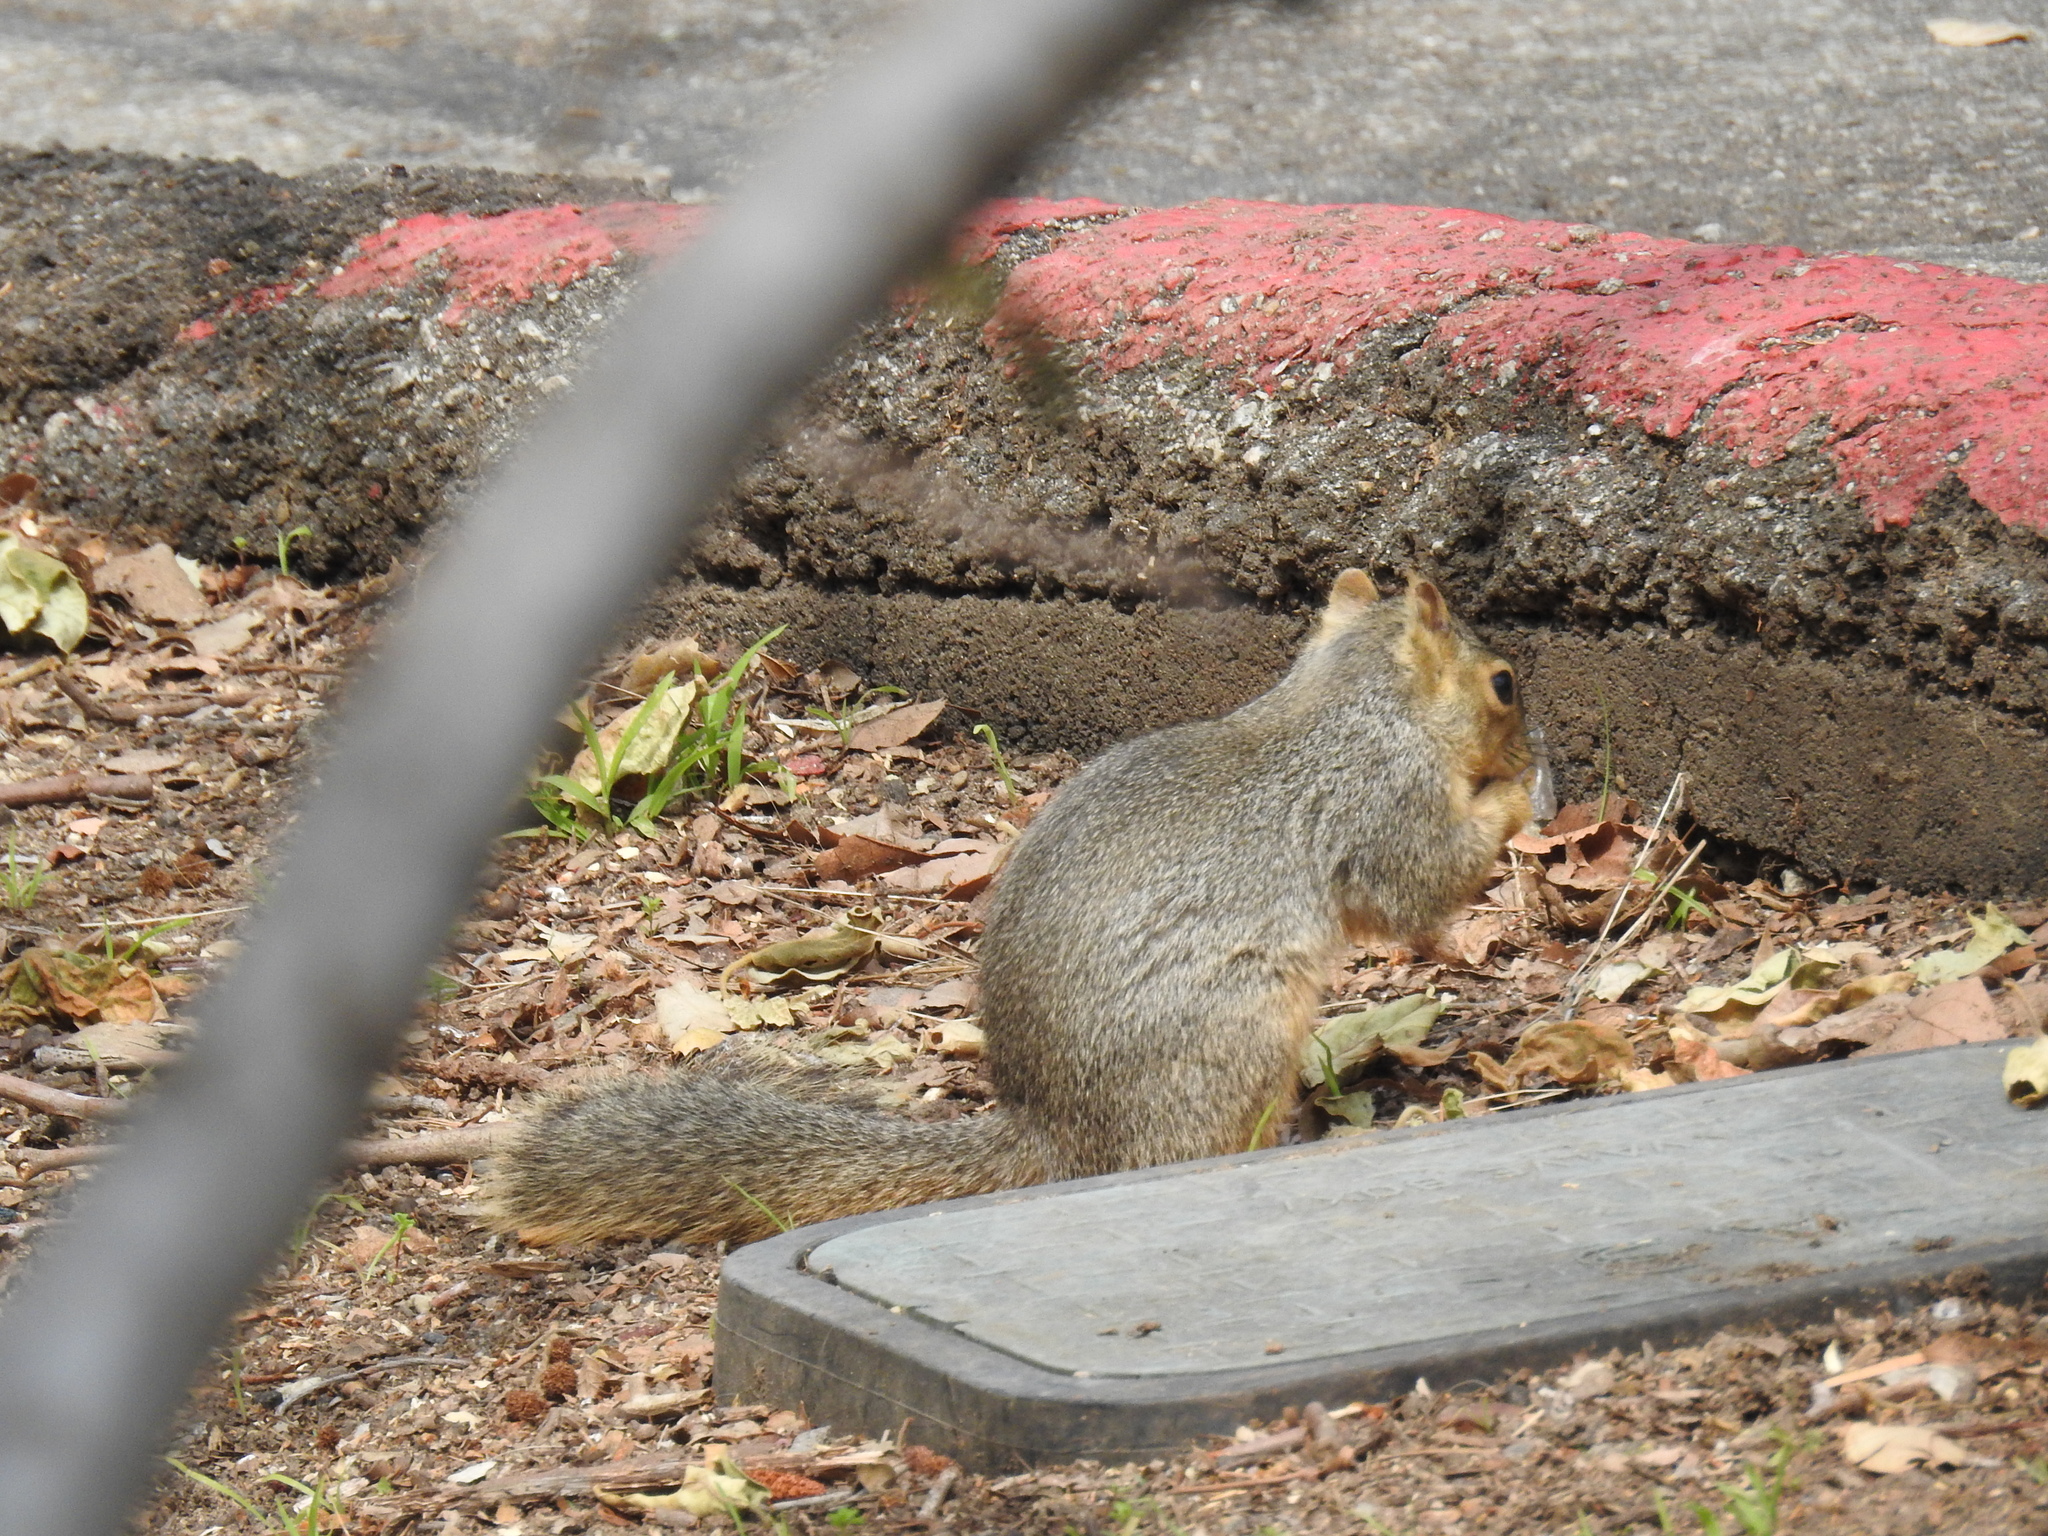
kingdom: Animalia
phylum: Chordata
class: Mammalia
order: Rodentia
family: Sciuridae
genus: Sciurus
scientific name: Sciurus niger
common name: Fox squirrel
